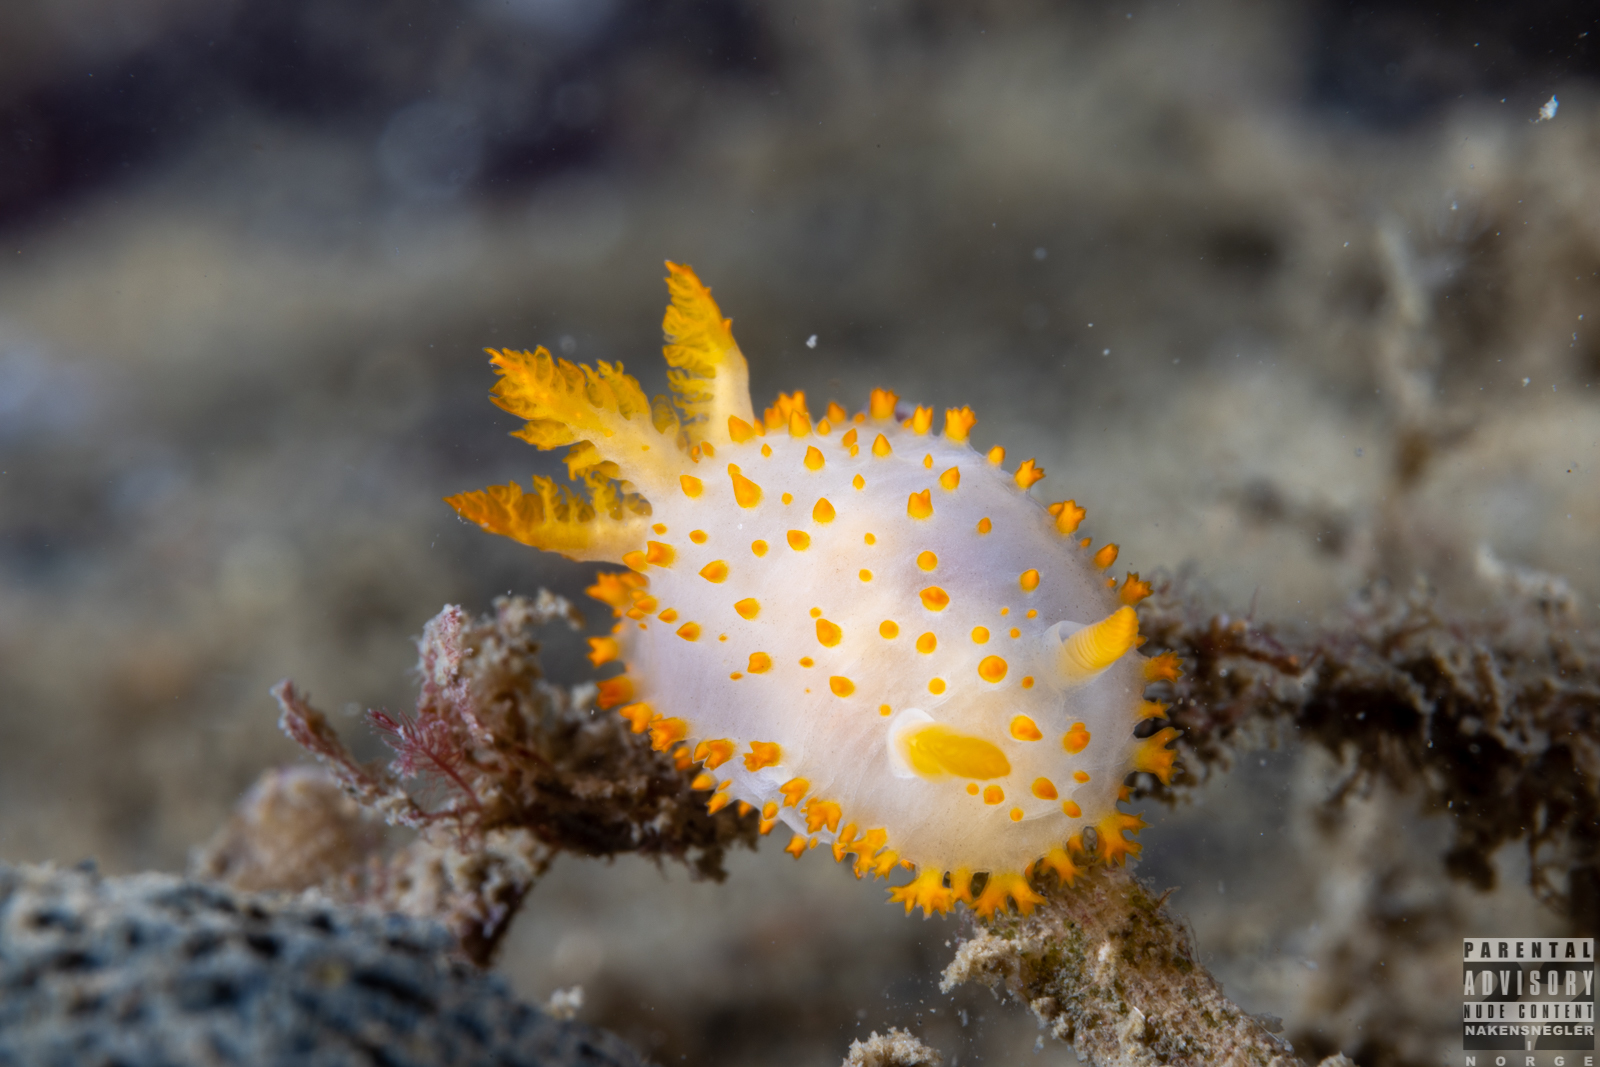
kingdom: Animalia
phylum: Mollusca
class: Gastropoda
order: Nudibranchia
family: Polyceridae
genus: Crimora
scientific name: Crimora papillata
